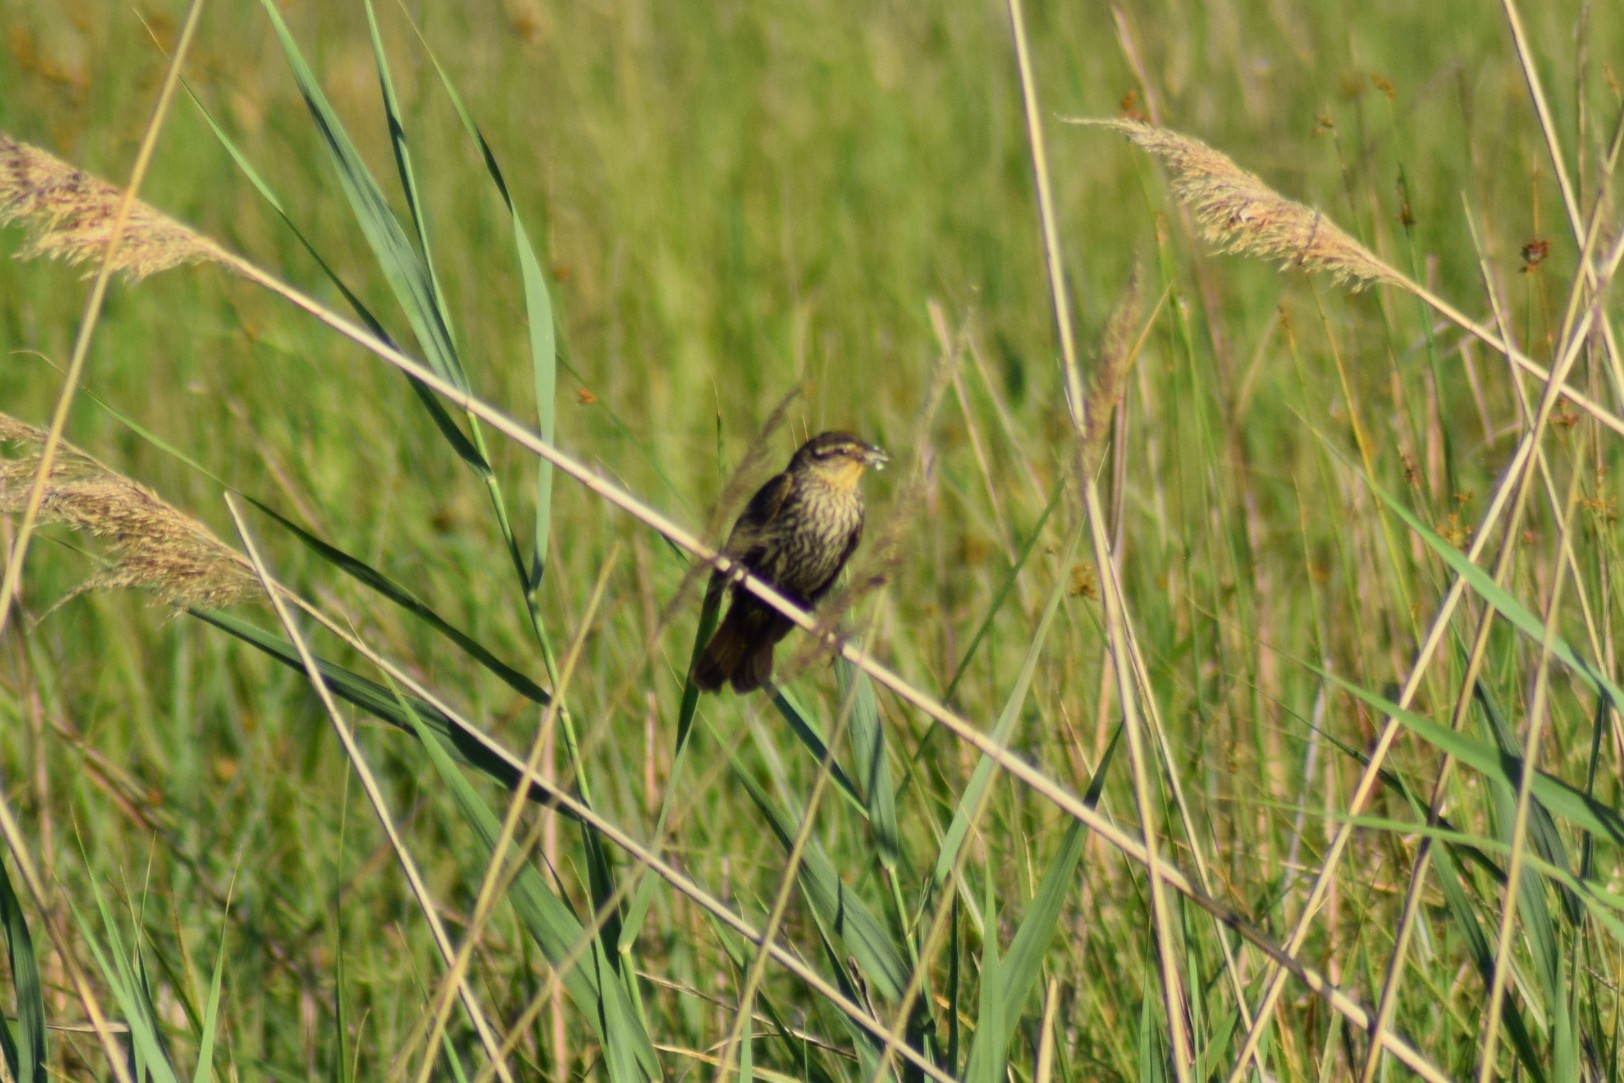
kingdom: Animalia
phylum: Chordata
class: Aves
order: Passeriformes
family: Icteridae
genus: Agelaius
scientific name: Agelaius phoeniceus
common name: Red-winged blackbird
